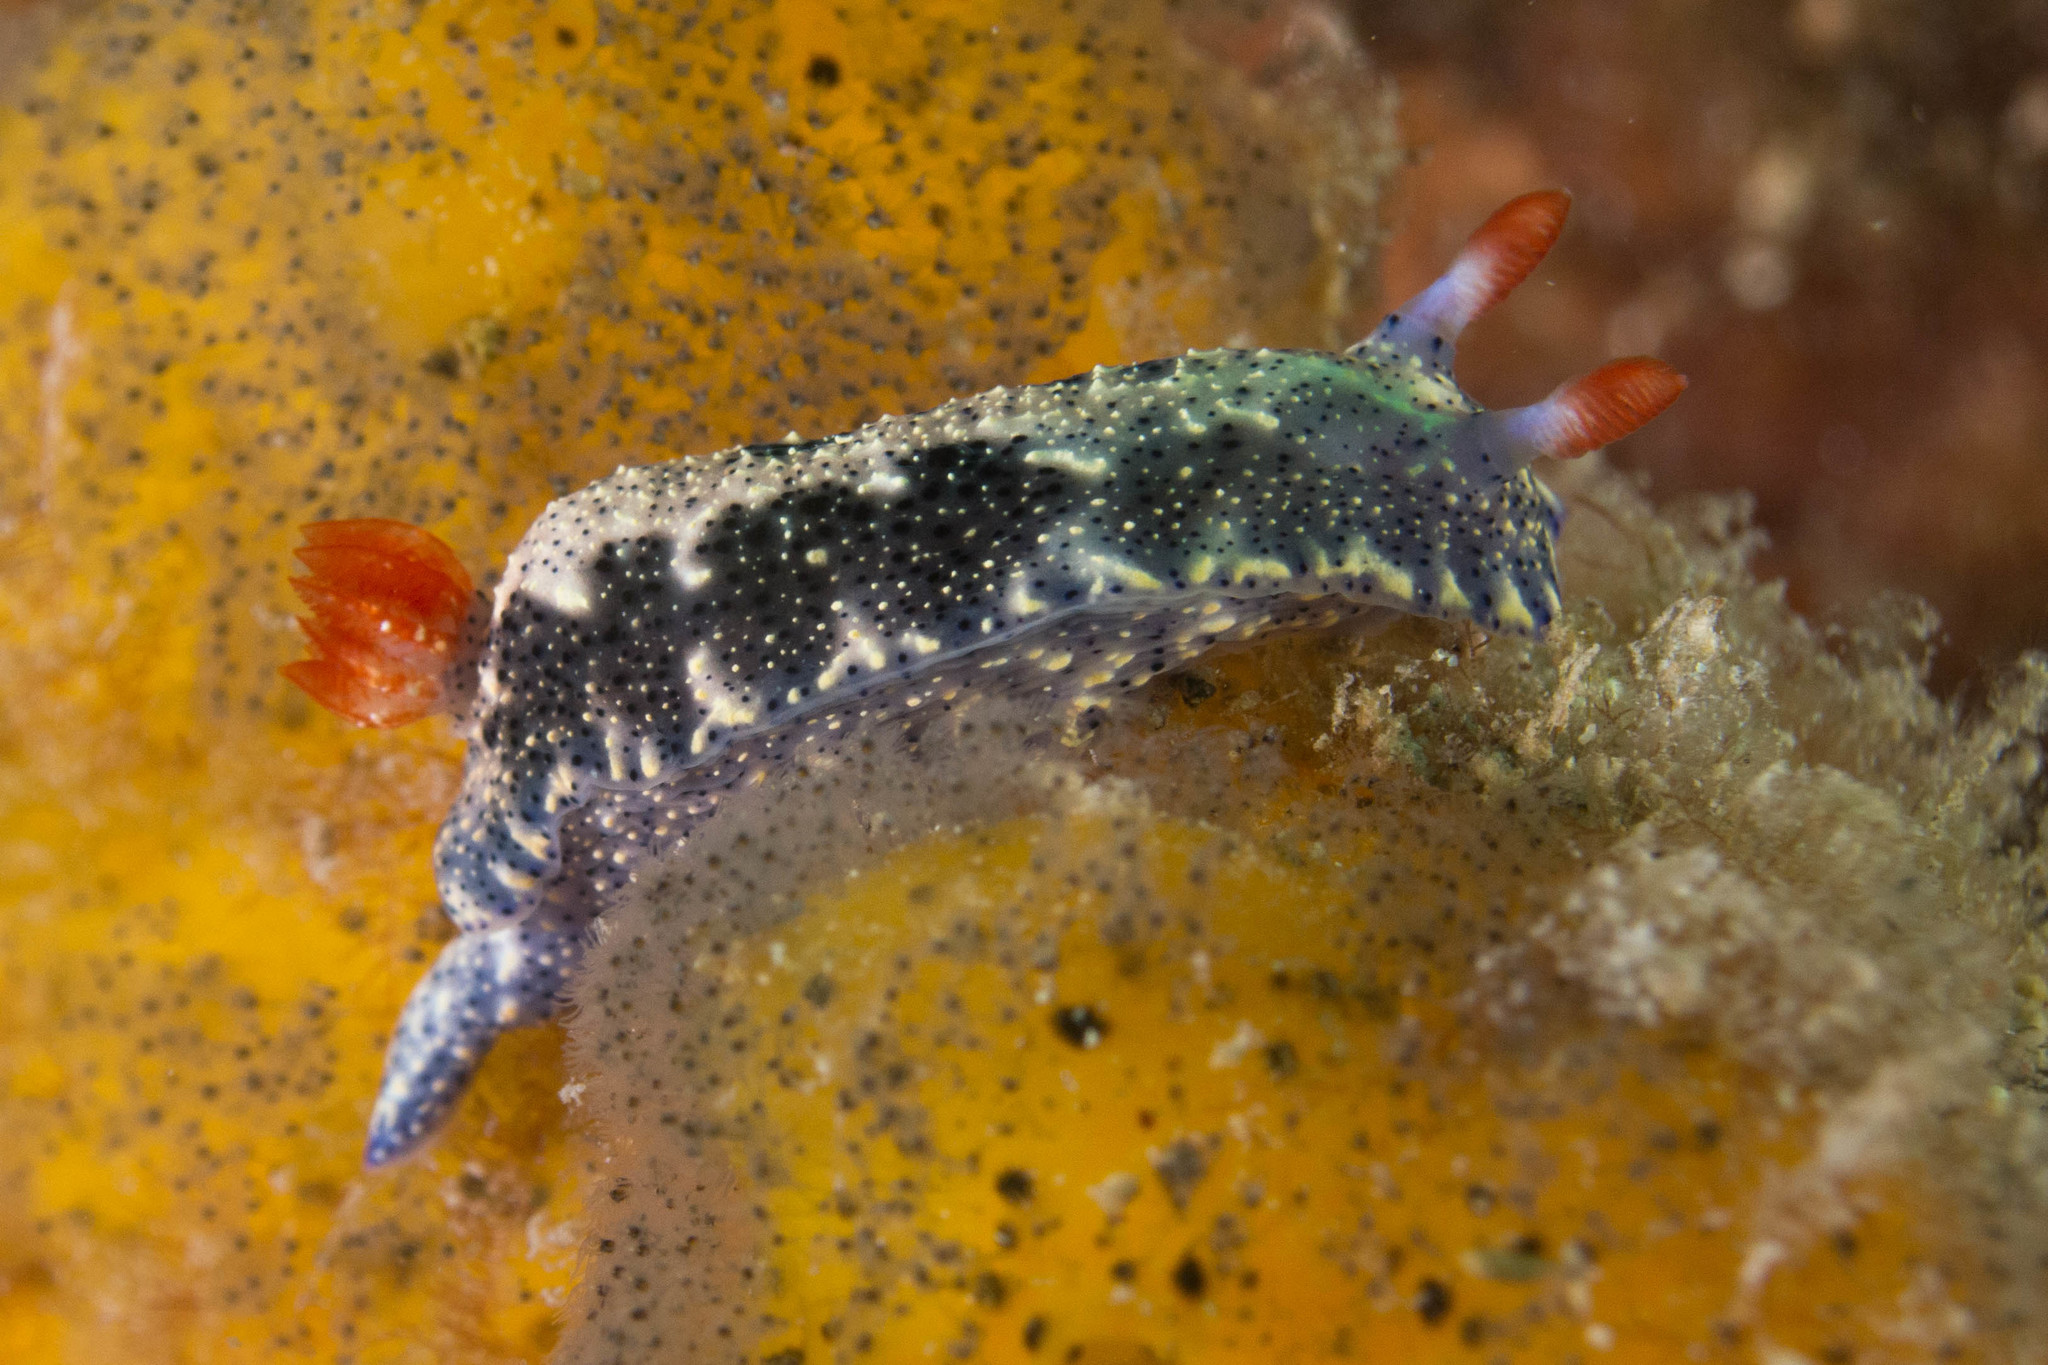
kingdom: Animalia
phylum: Mollusca
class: Gastropoda
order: Nudibranchia
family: Chromodorididae
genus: Hypselodoris
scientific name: Hypselodoris saintvincentius
